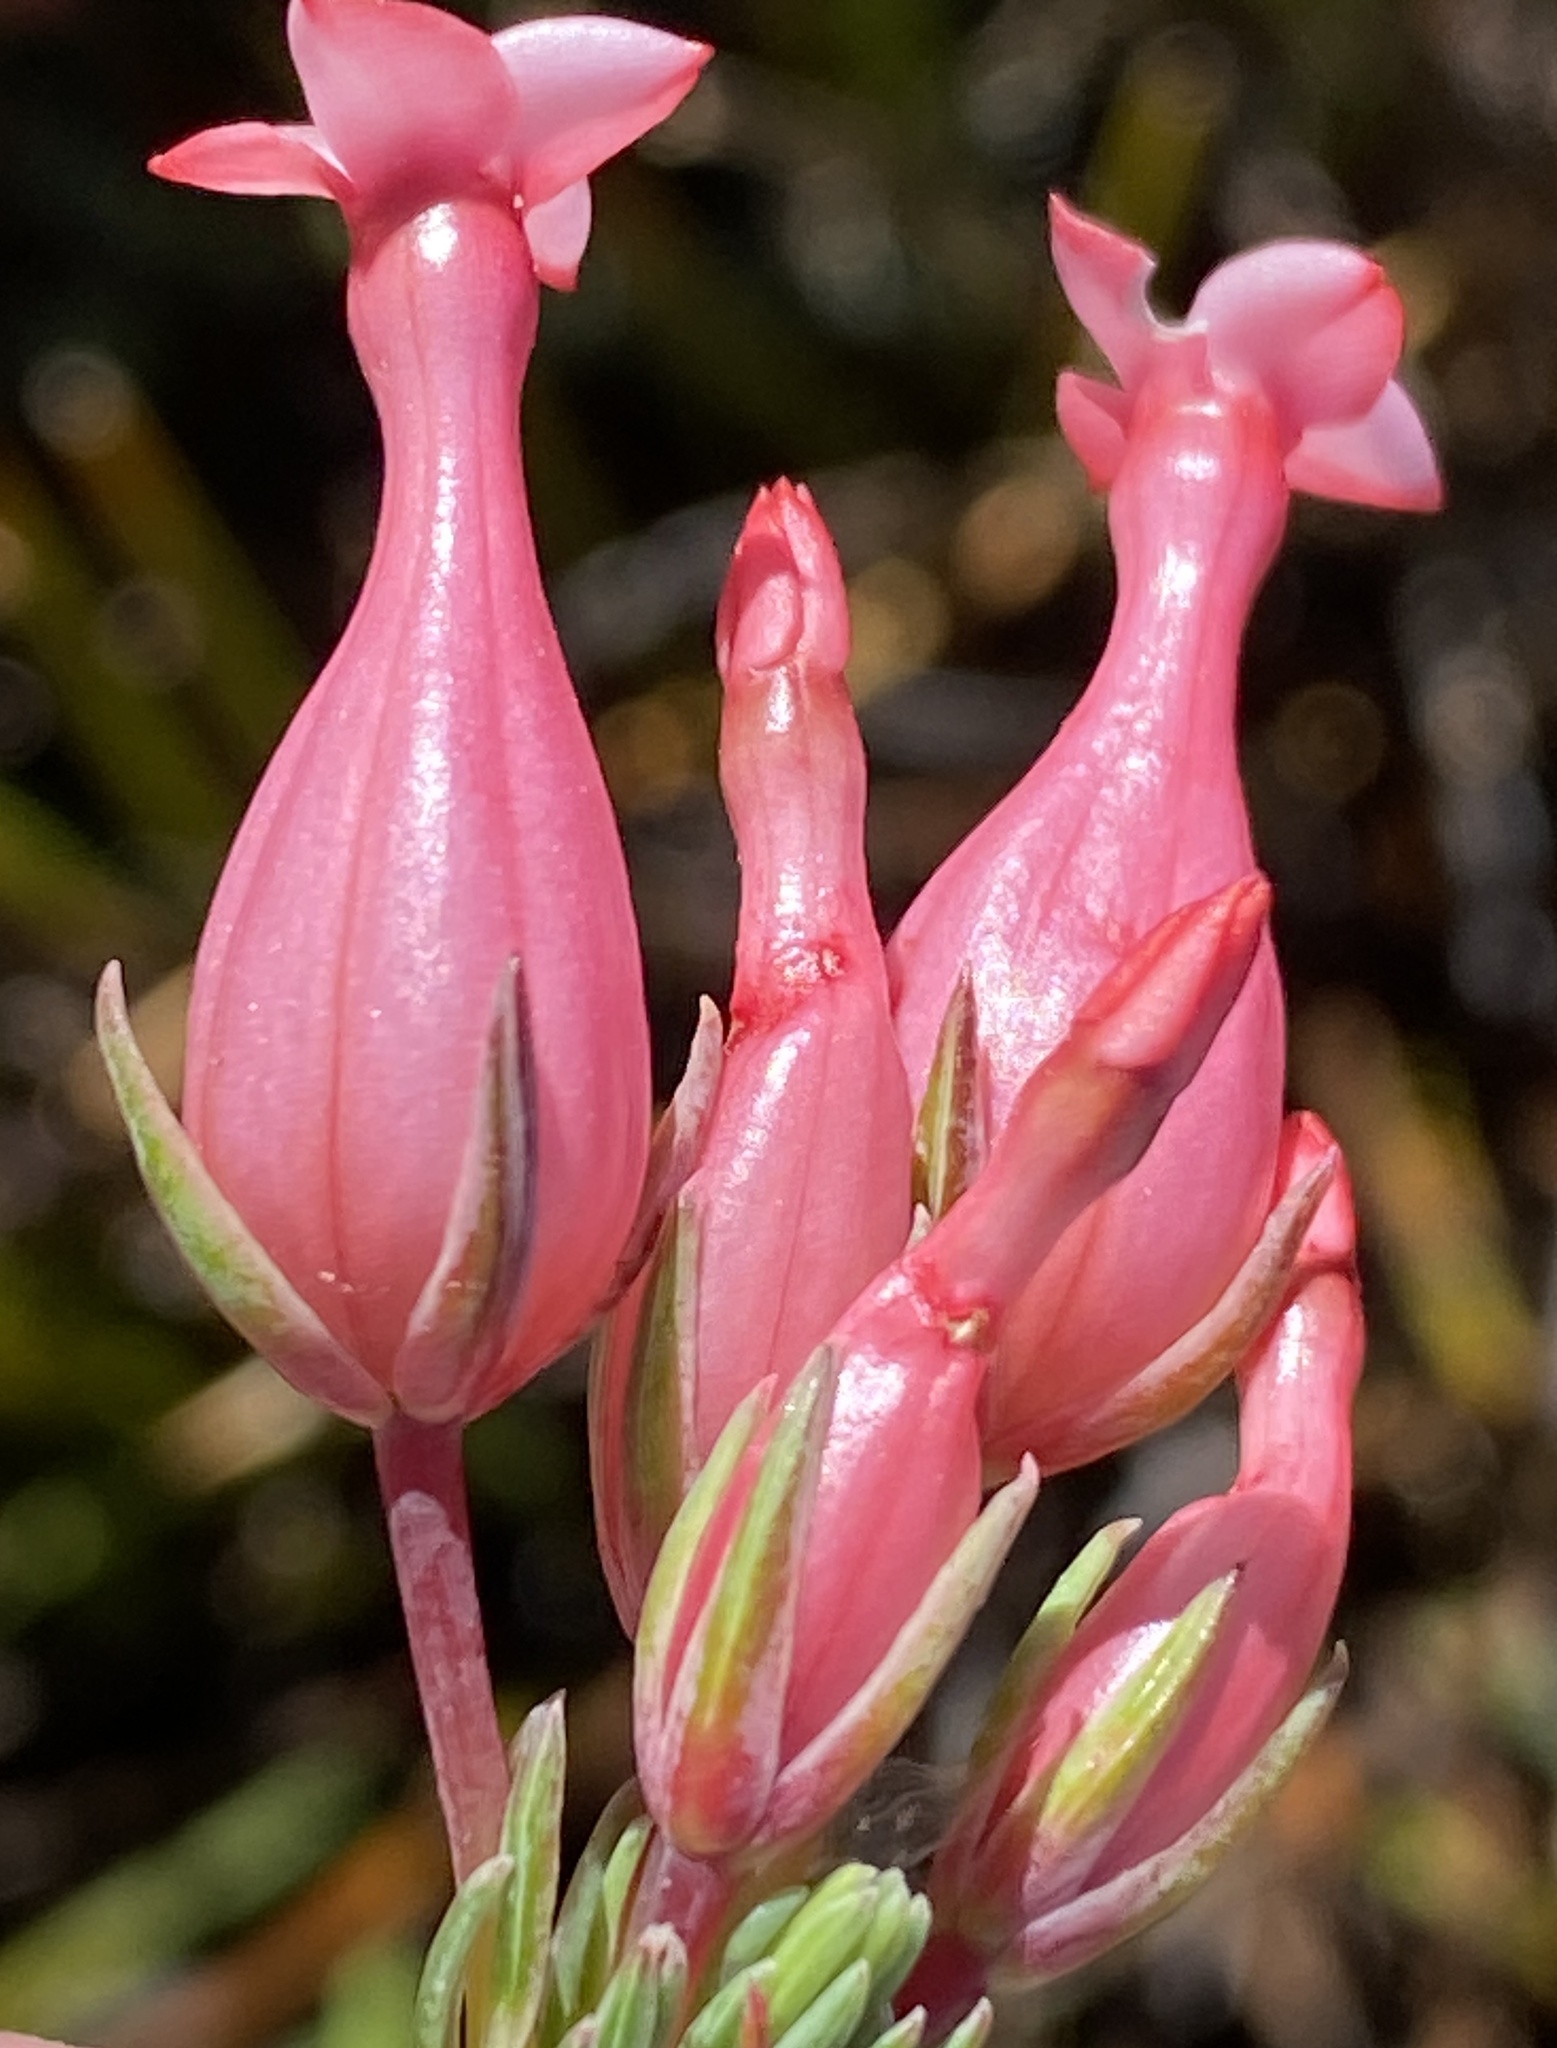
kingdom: Plantae
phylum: Tracheophyta
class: Magnoliopsida
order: Ericales
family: Ericaceae
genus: Erica
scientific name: Erica junonia
